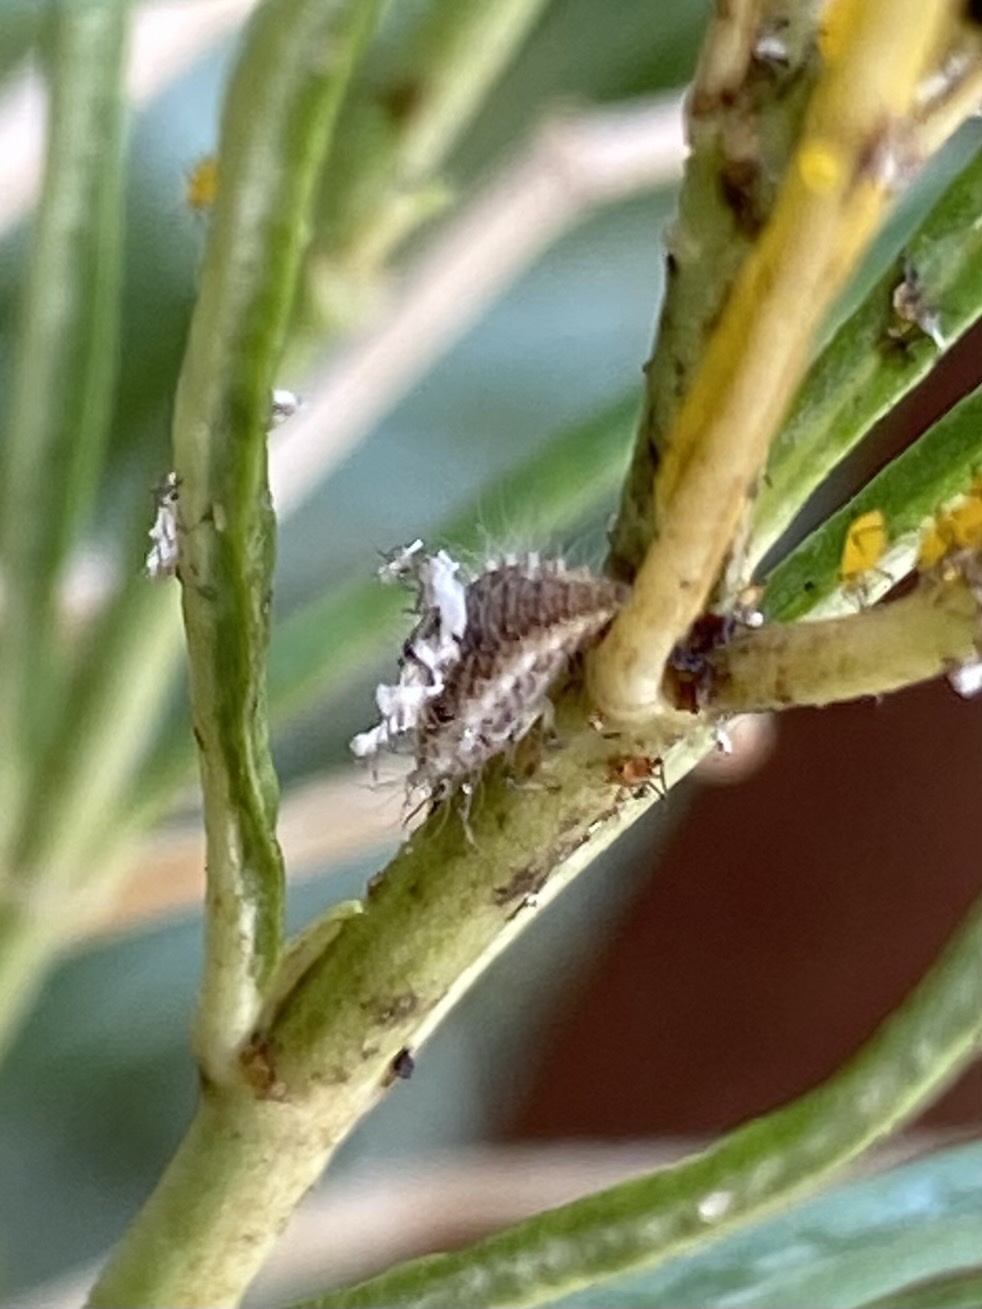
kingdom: Animalia
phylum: Arthropoda
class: Insecta
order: Neuroptera
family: Chrysopidae
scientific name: Chrysopidae
